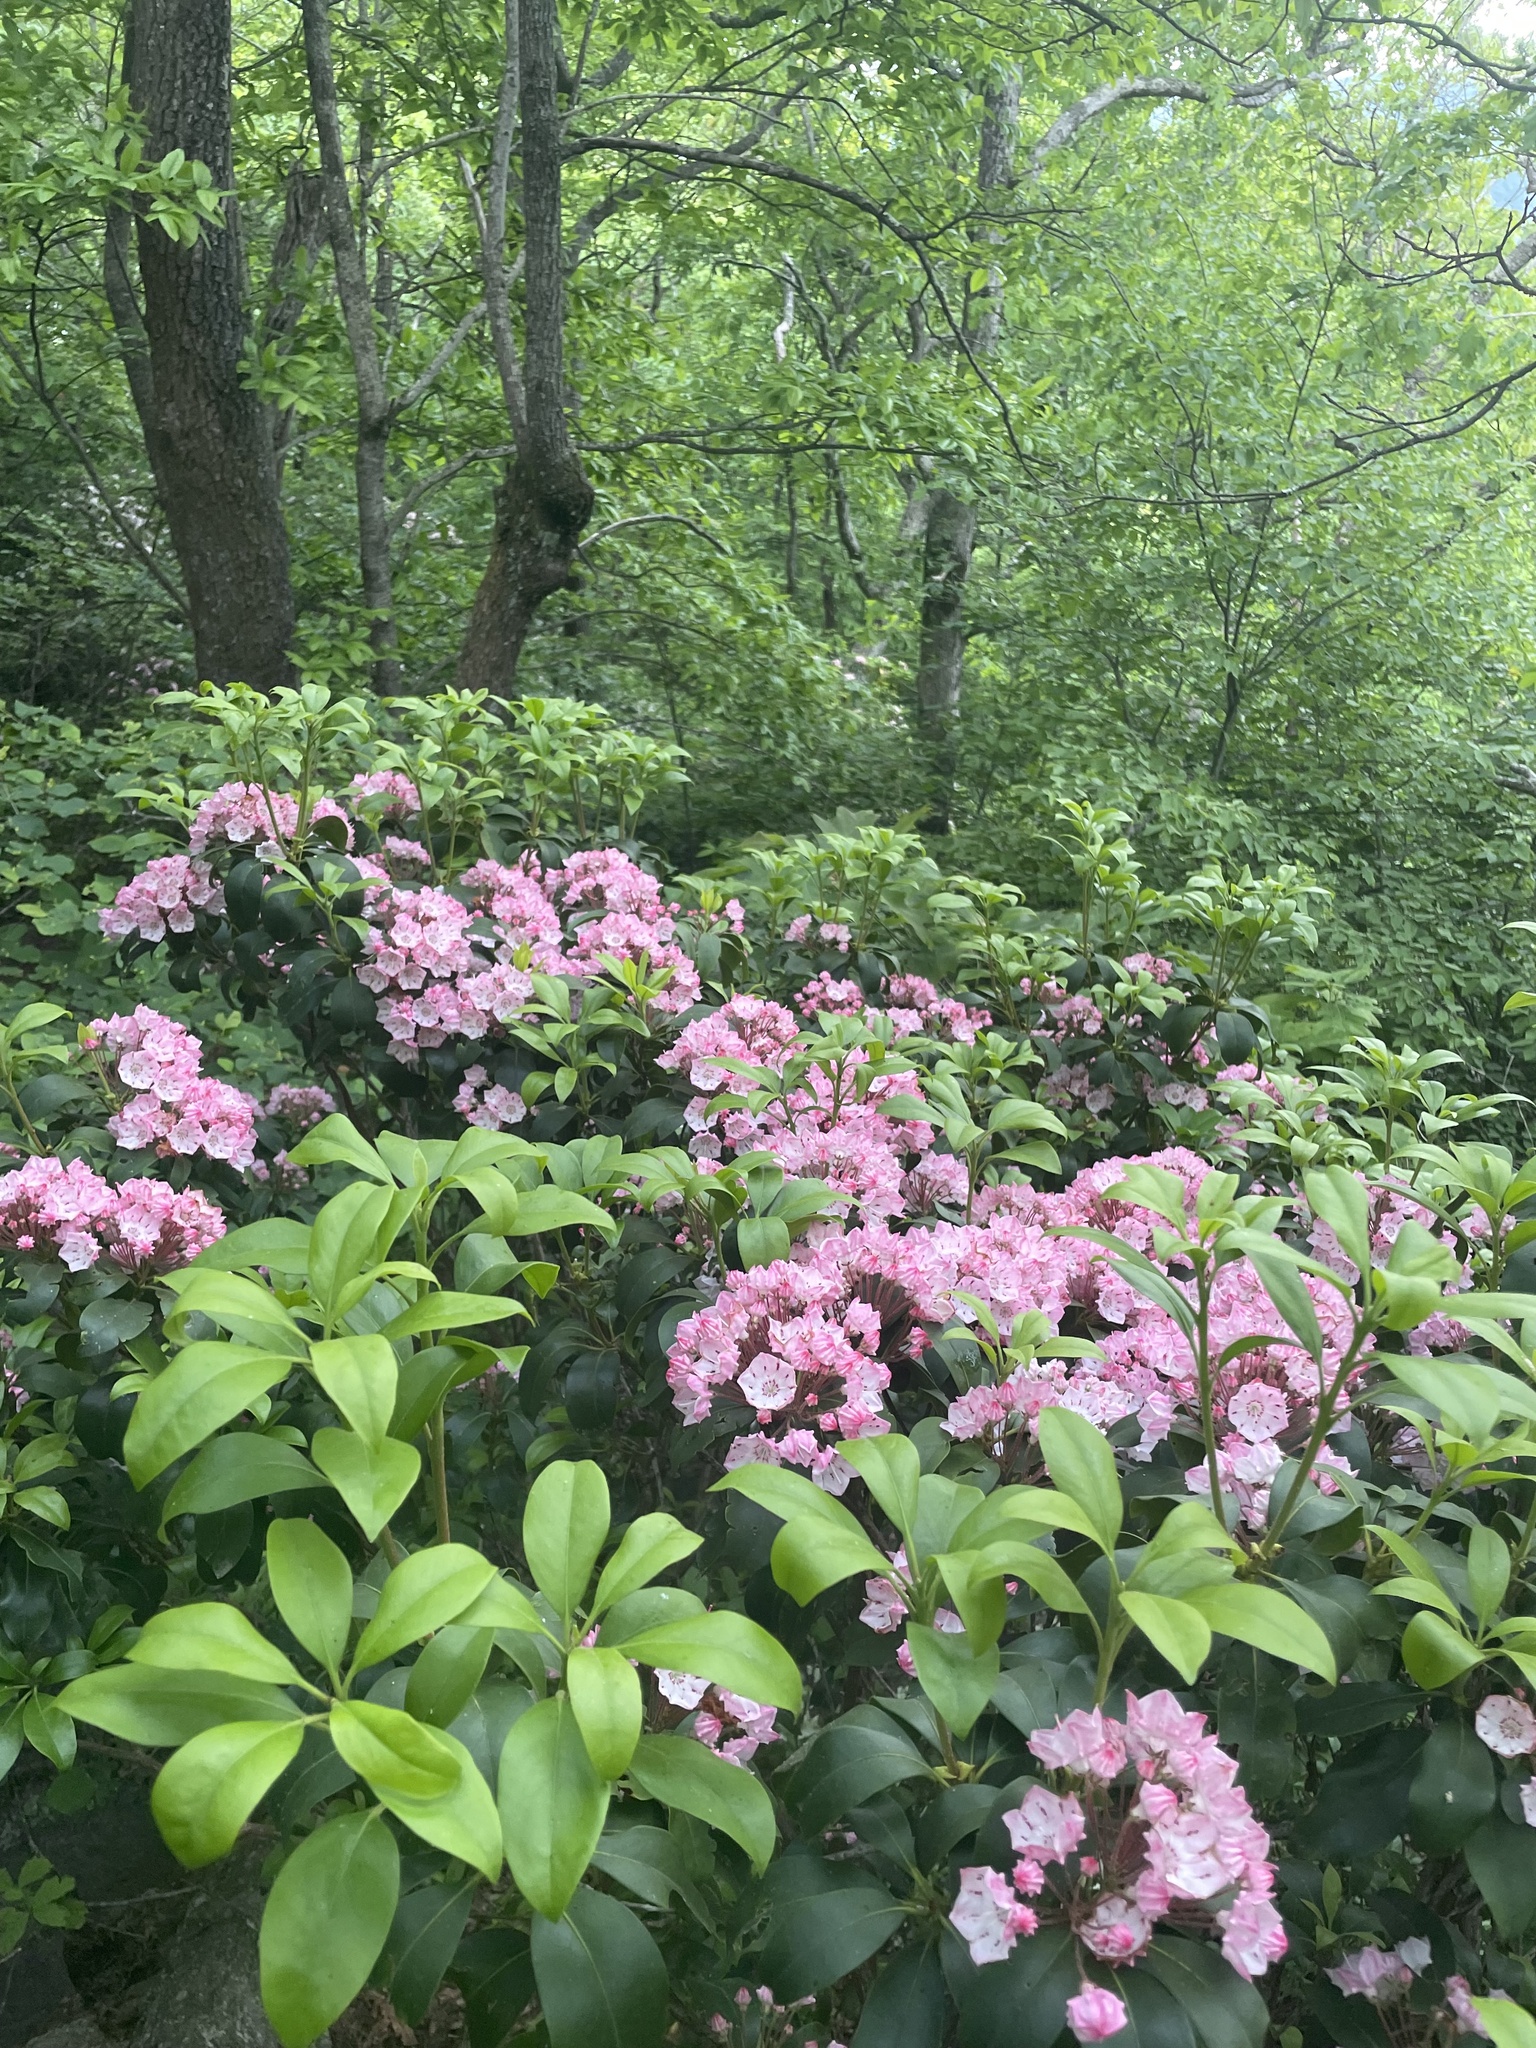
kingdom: Plantae
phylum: Tracheophyta
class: Magnoliopsida
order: Ericales
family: Ericaceae
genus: Kalmia
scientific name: Kalmia latifolia
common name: Mountain-laurel
